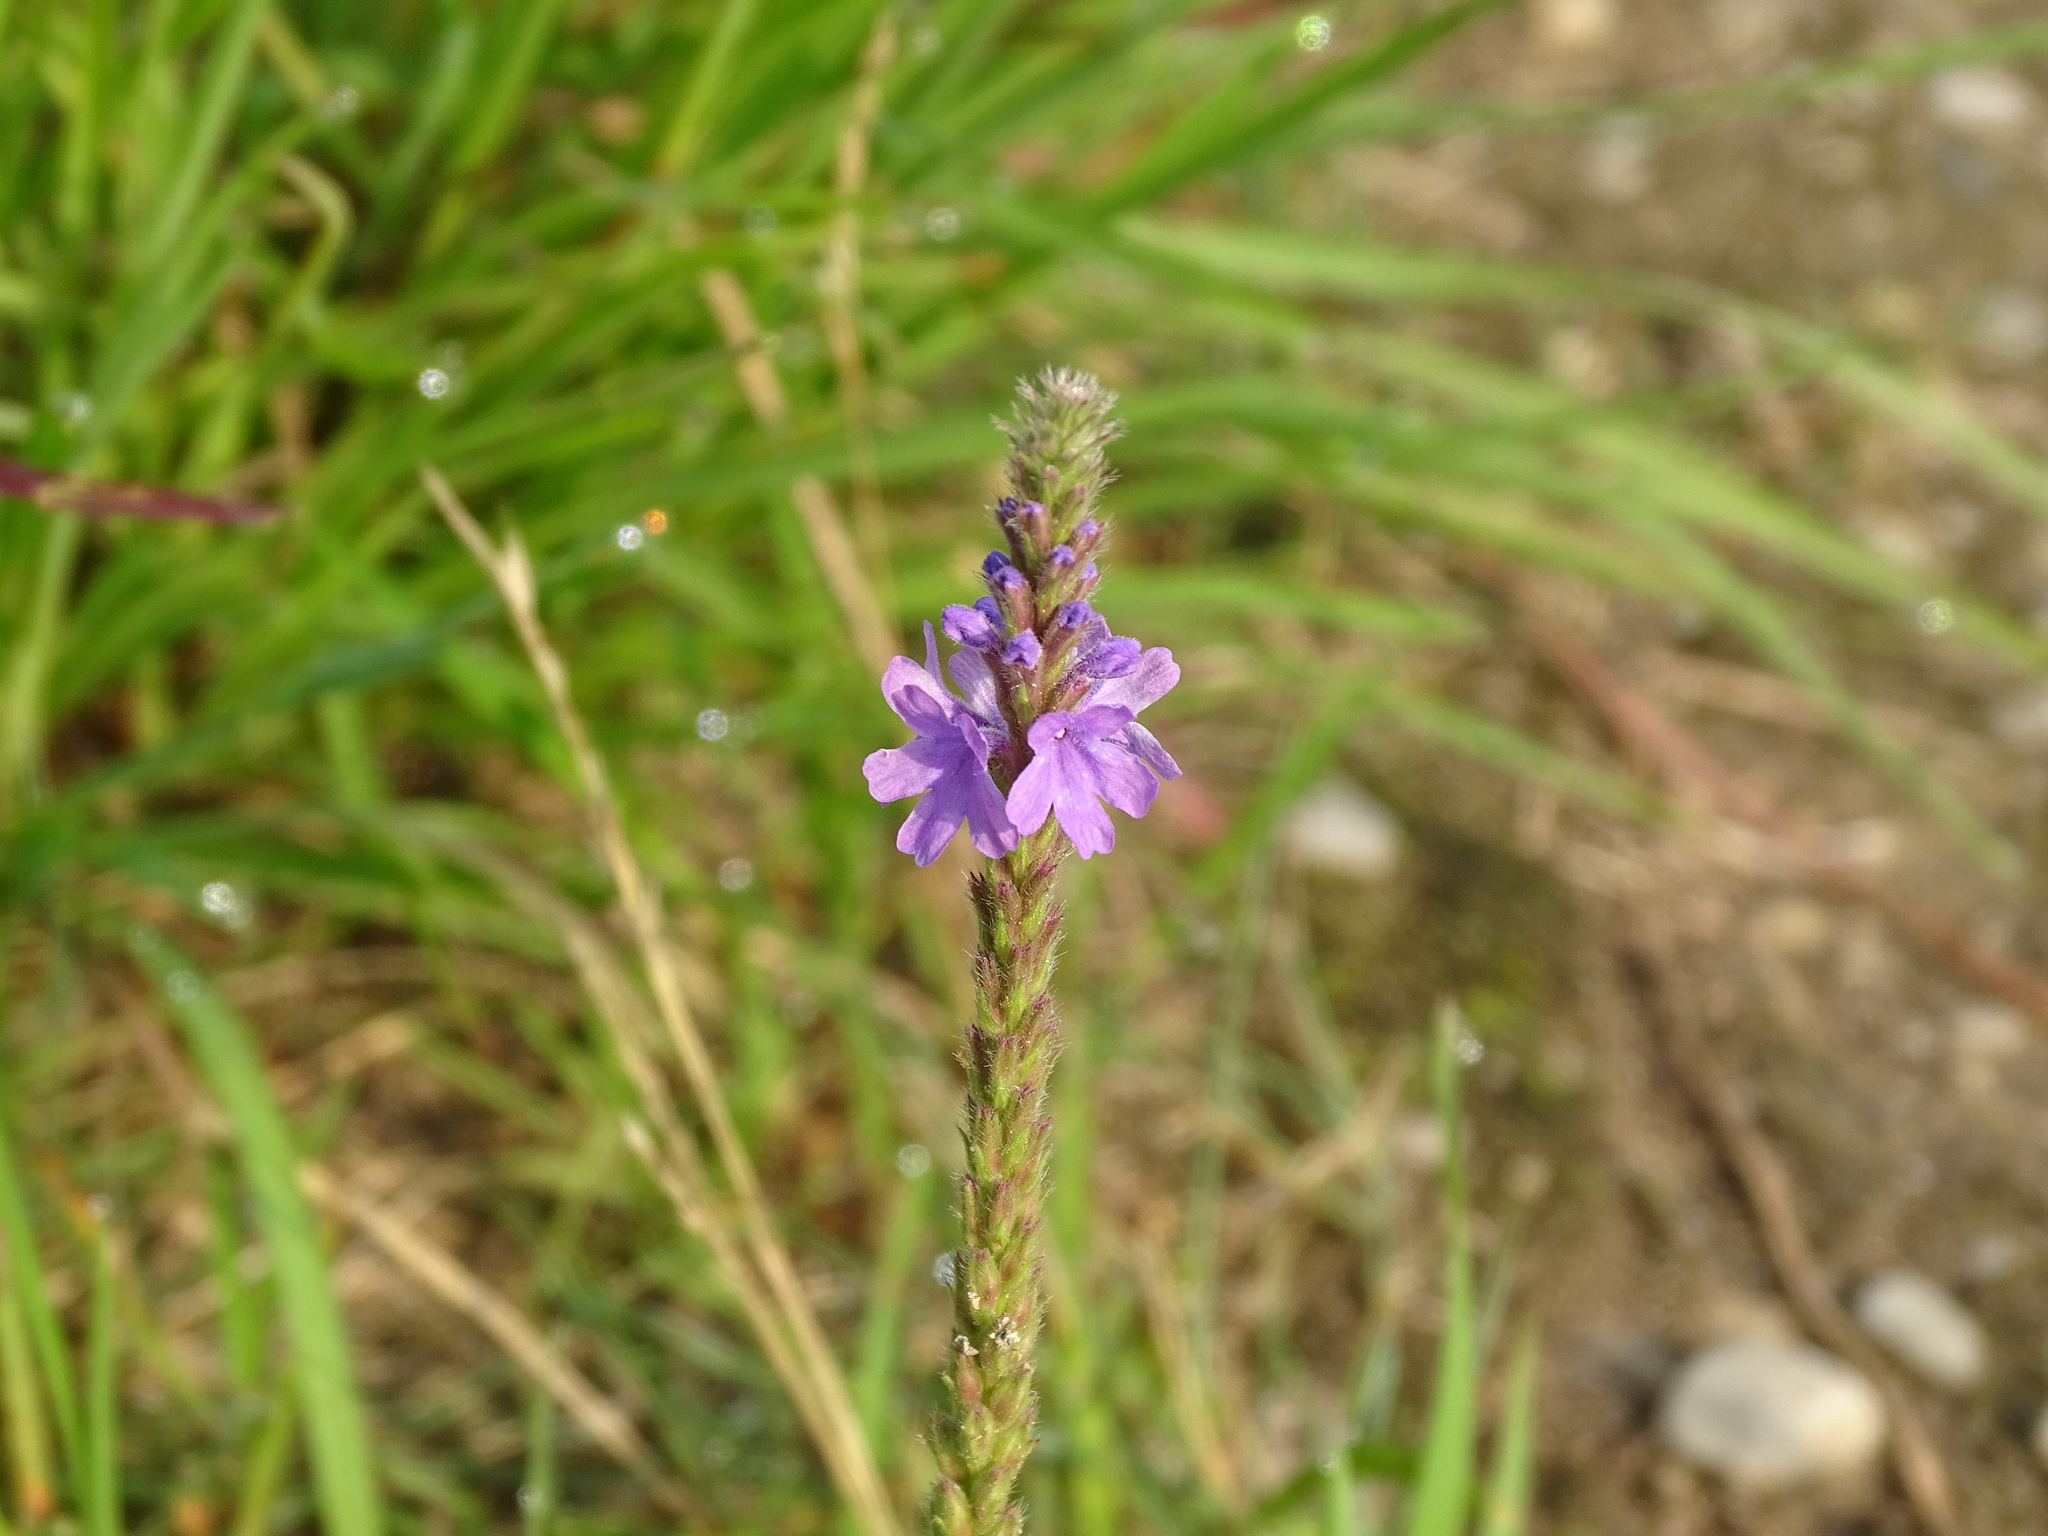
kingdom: Plantae
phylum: Tracheophyta
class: Magnoliopsida
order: Lamiales
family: Verbenaceae
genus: Verbena
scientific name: Verbena stricta
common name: Hoary vervain
